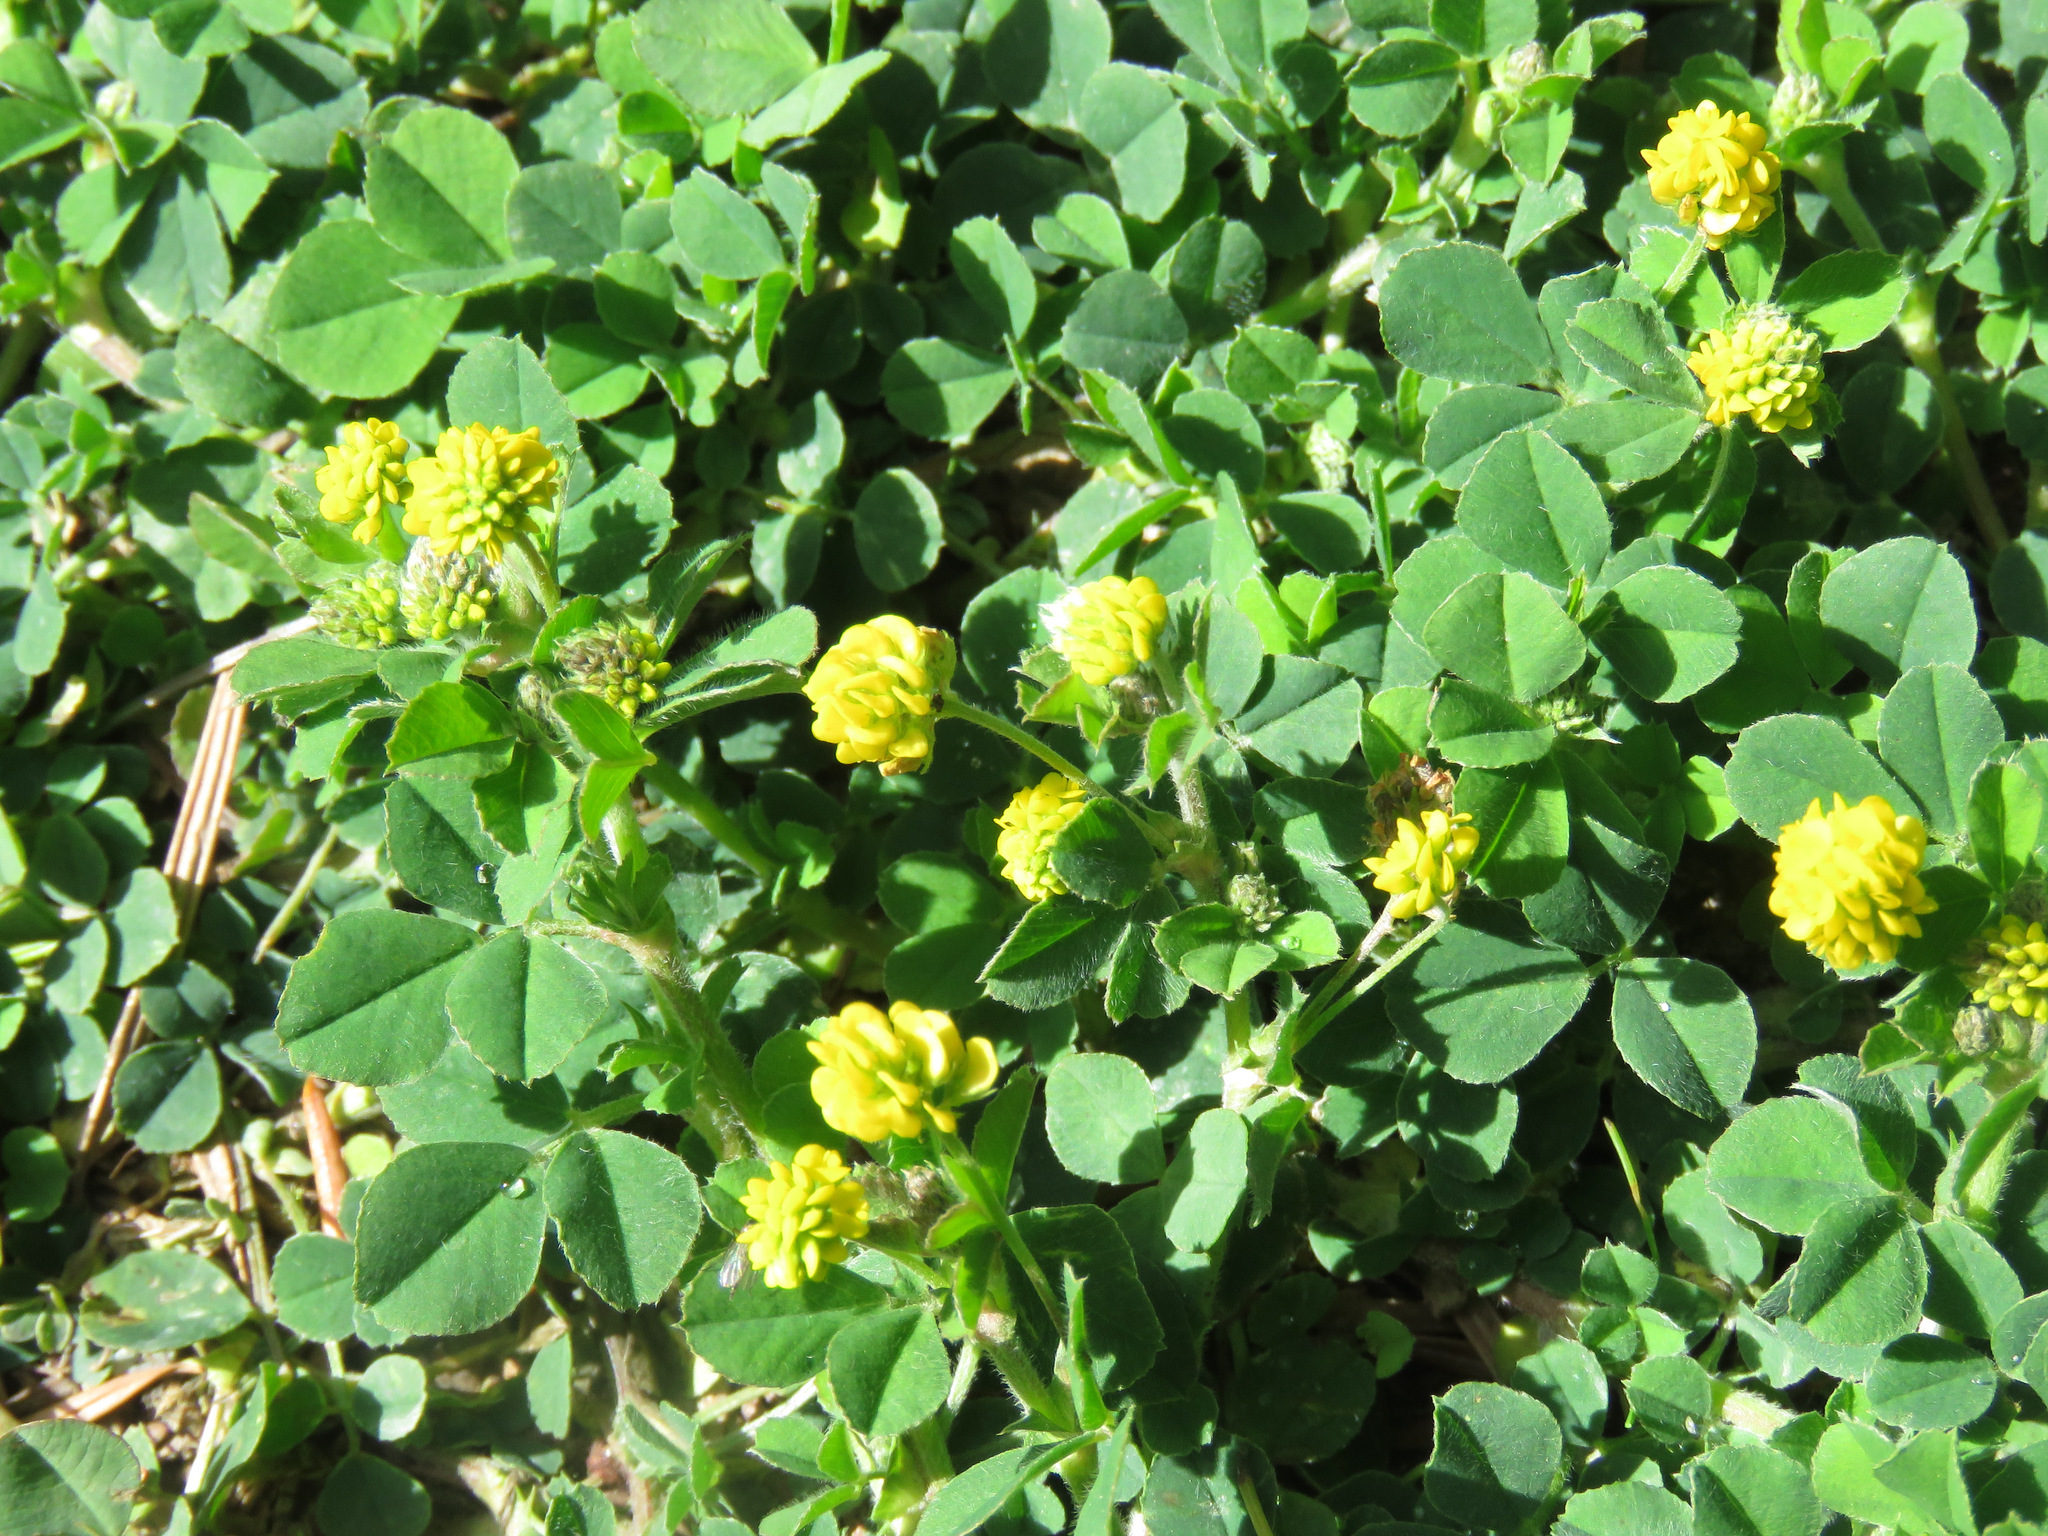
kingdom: Plantae
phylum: Tracheophyta
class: Magnoliopsida
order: Fabales
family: Fabaceae
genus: Medicago
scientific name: Medicago lupulina
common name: Black medick
